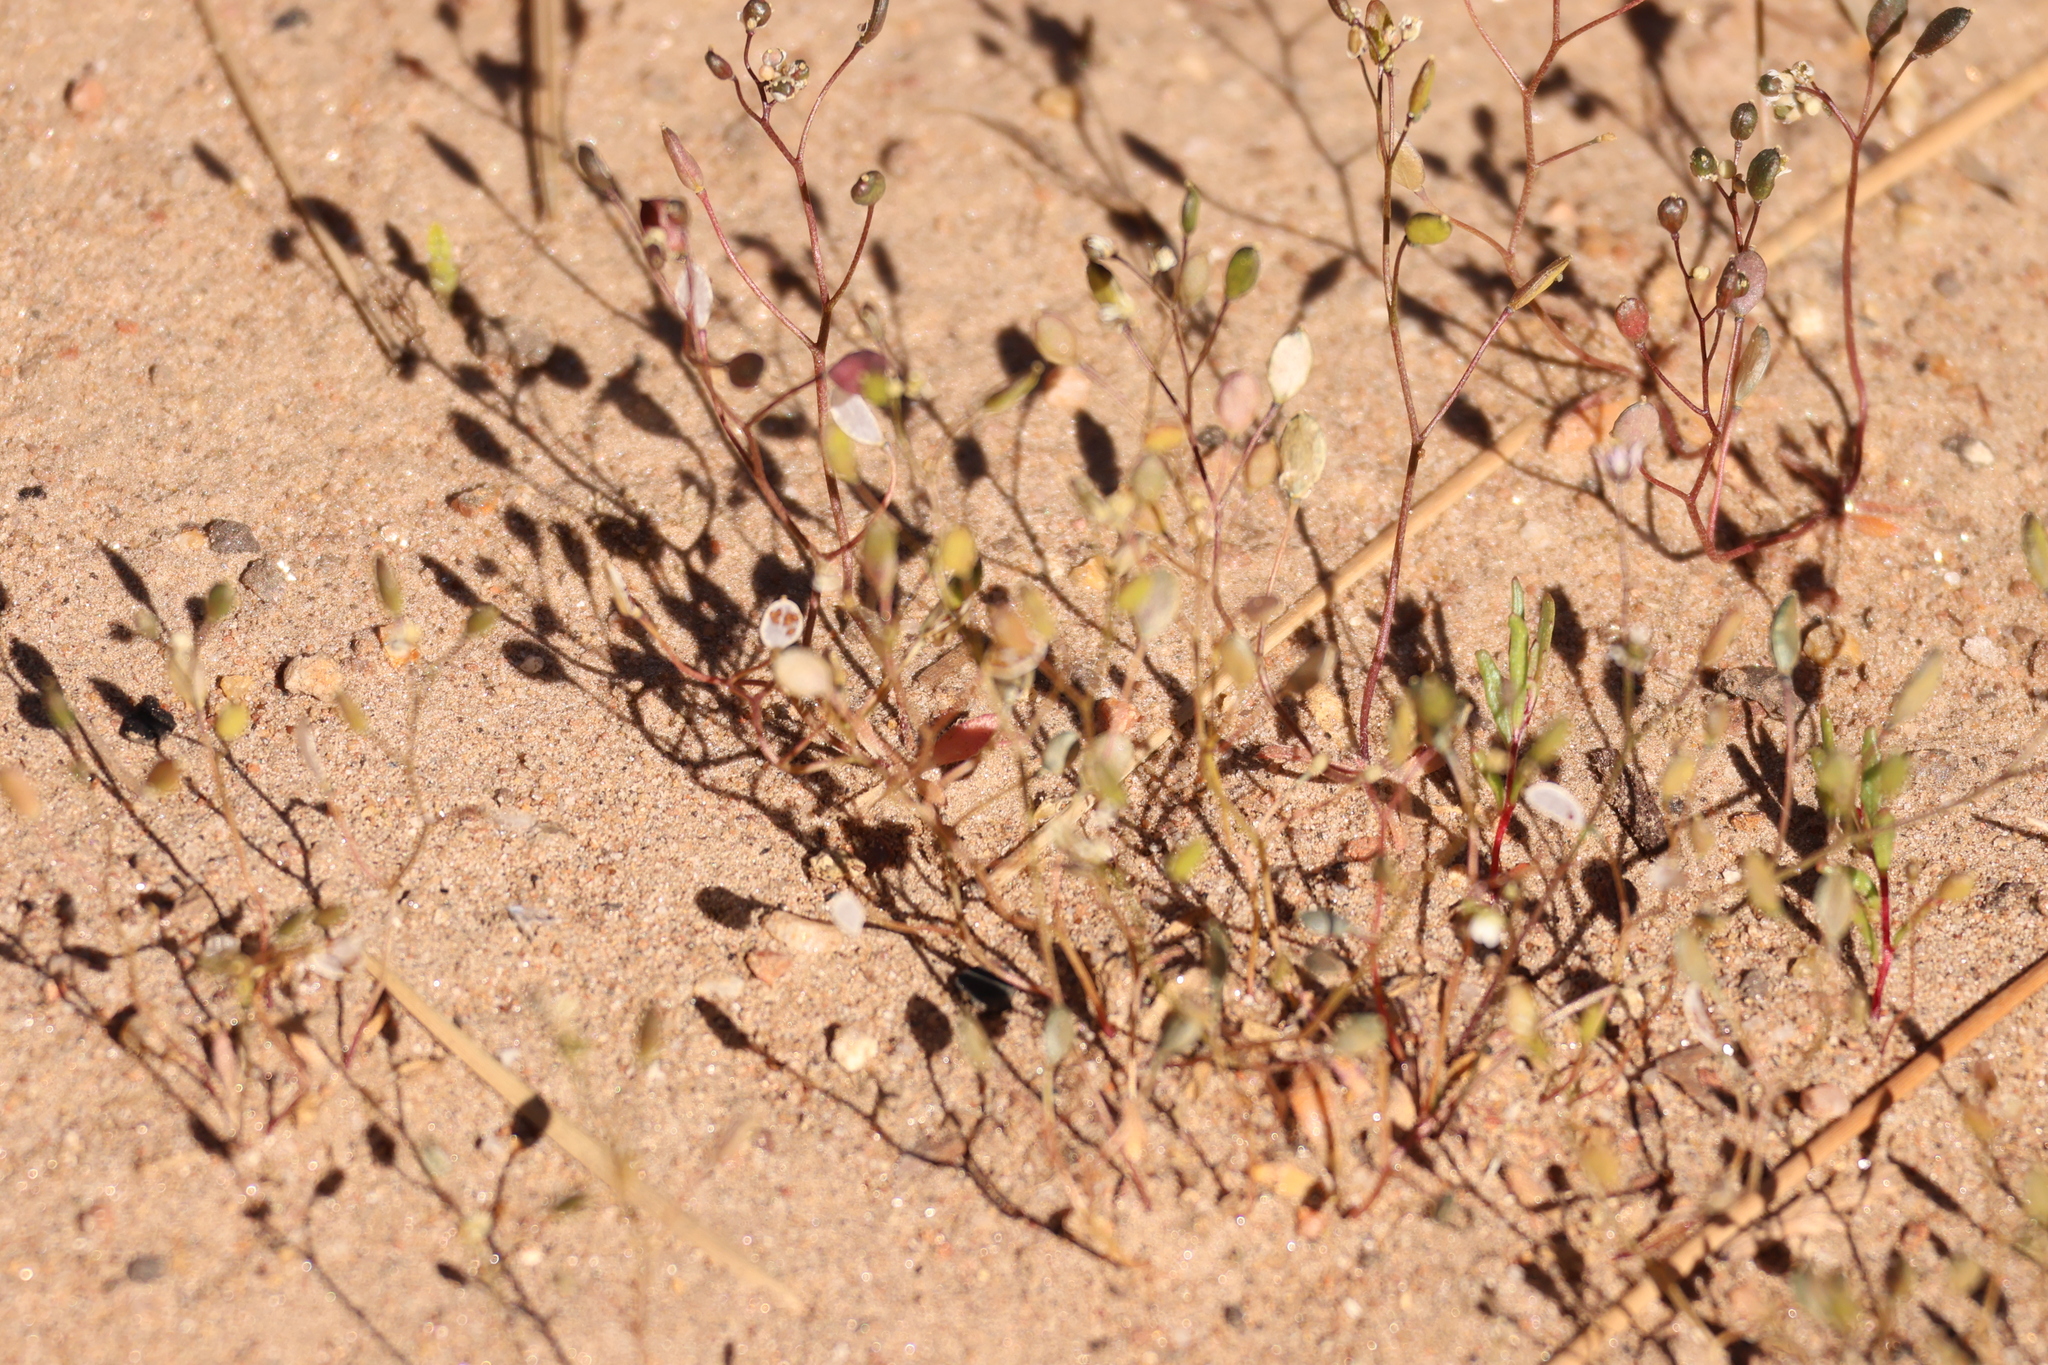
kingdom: Plantae
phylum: Tracheophyta
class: Magnoliopsida
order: Brassicales
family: Brassicaceae
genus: Draba
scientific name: Draba verna
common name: Spring draba
